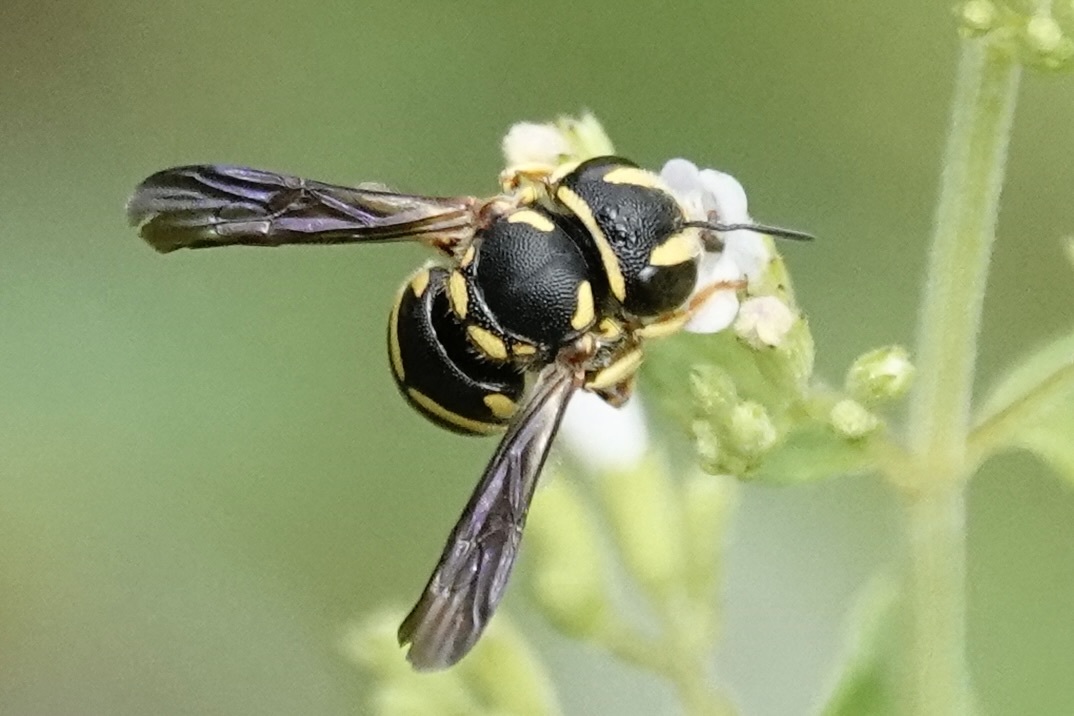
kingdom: Animalia
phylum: Arthropoda
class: Insecta
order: Hymenoptera
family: Megachilidae
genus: Anthidiellum
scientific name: Anthidiellum notatum
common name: Northern rotund-resin bee
